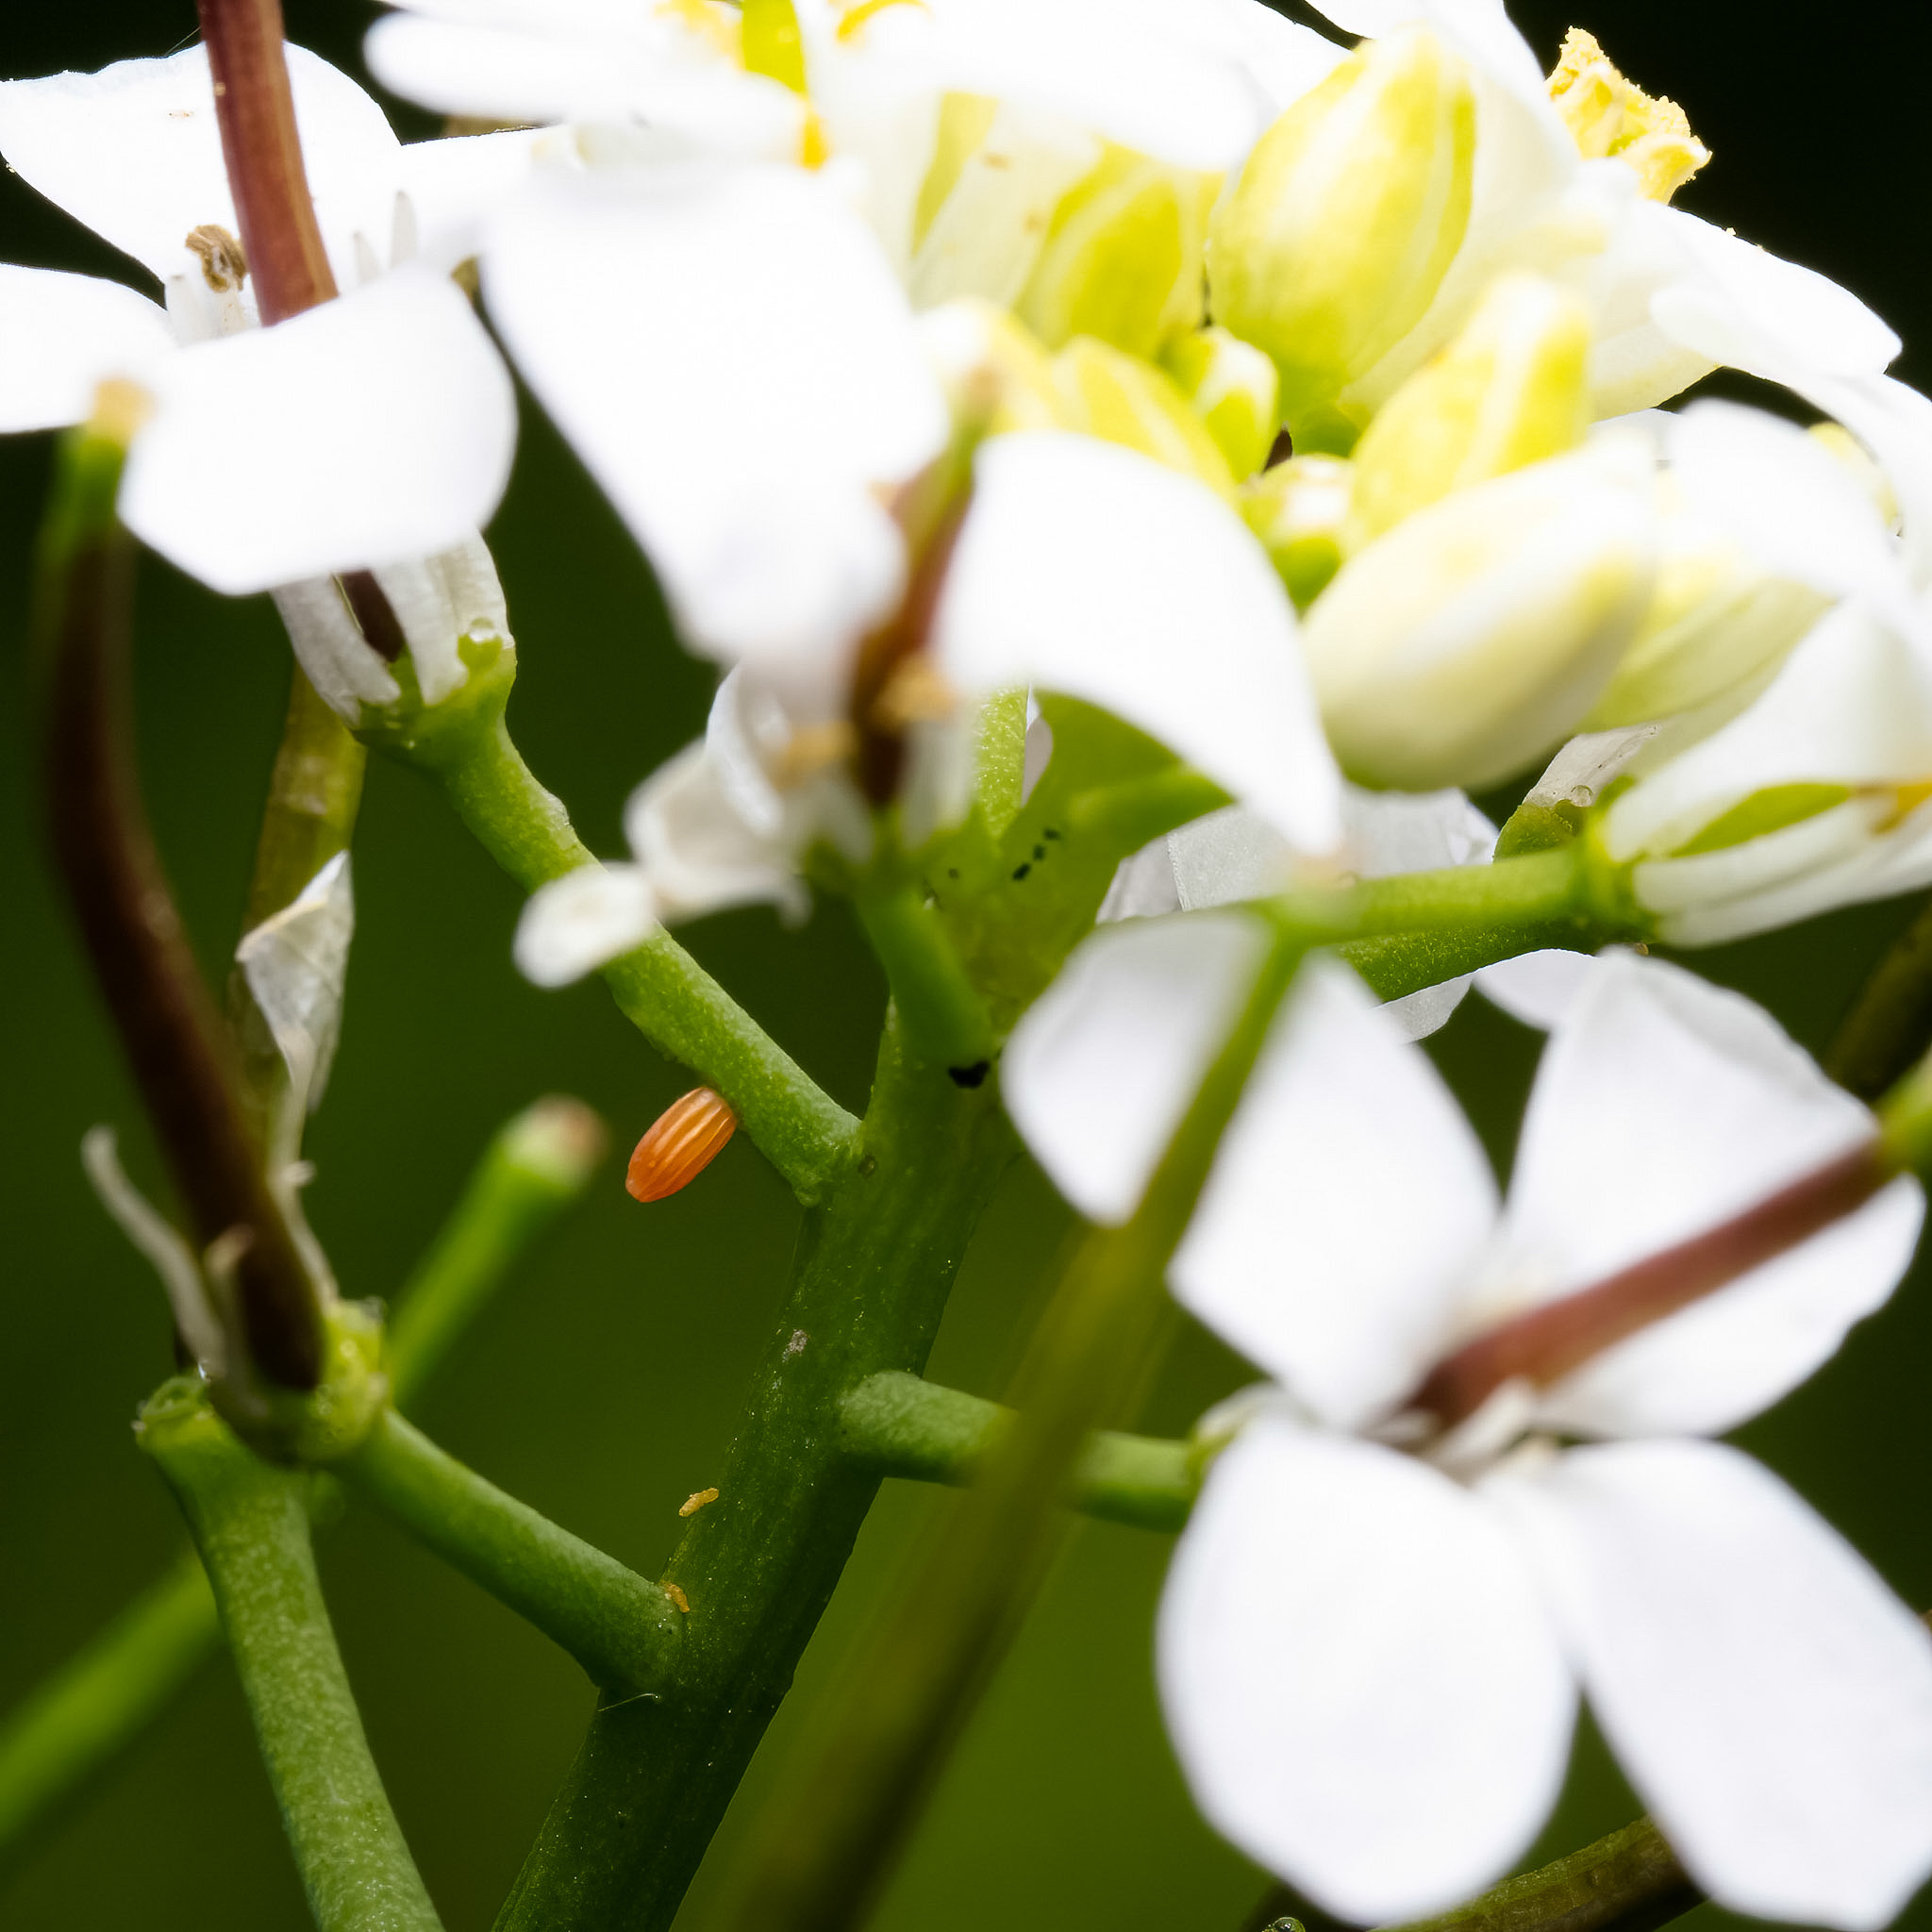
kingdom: Animalia
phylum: Arthropoda
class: Insecta
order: Lepidoptera
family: Pieridae
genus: Anthocharis
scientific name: Anthocharis cardamines
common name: Orange-tip
